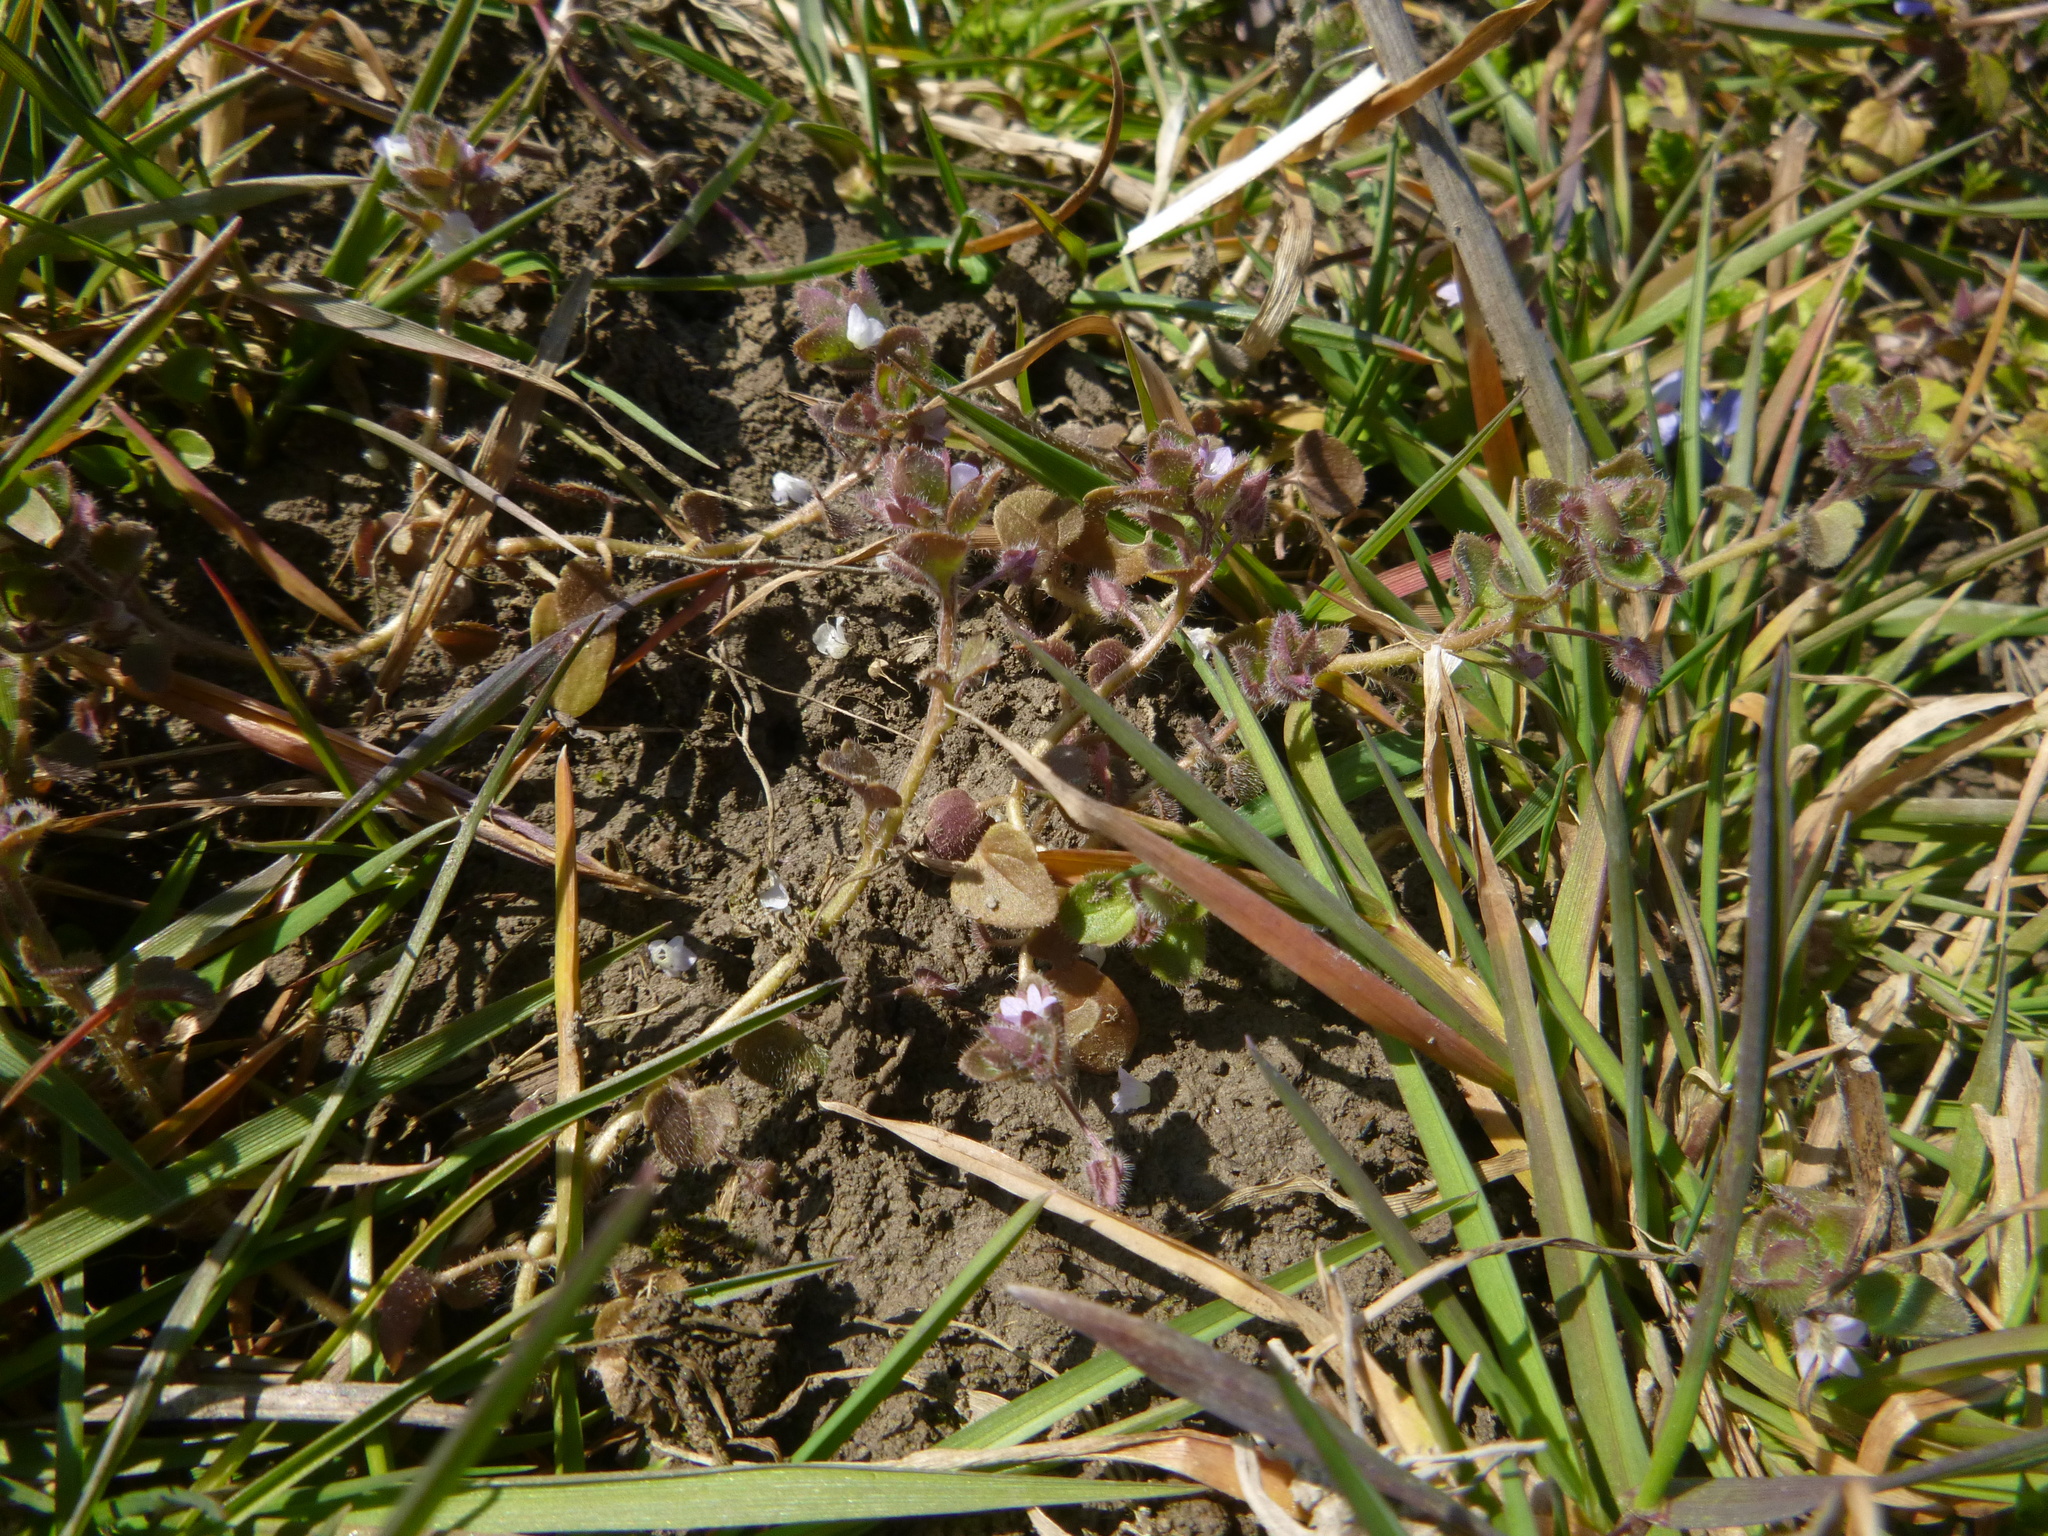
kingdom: Plantae
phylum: Tracheophyta
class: Magnoliopsida
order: Lamiales
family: Plantaginaceae
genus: Veronica
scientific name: Veronica sublobata
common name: False ivy-leaved speedwell
